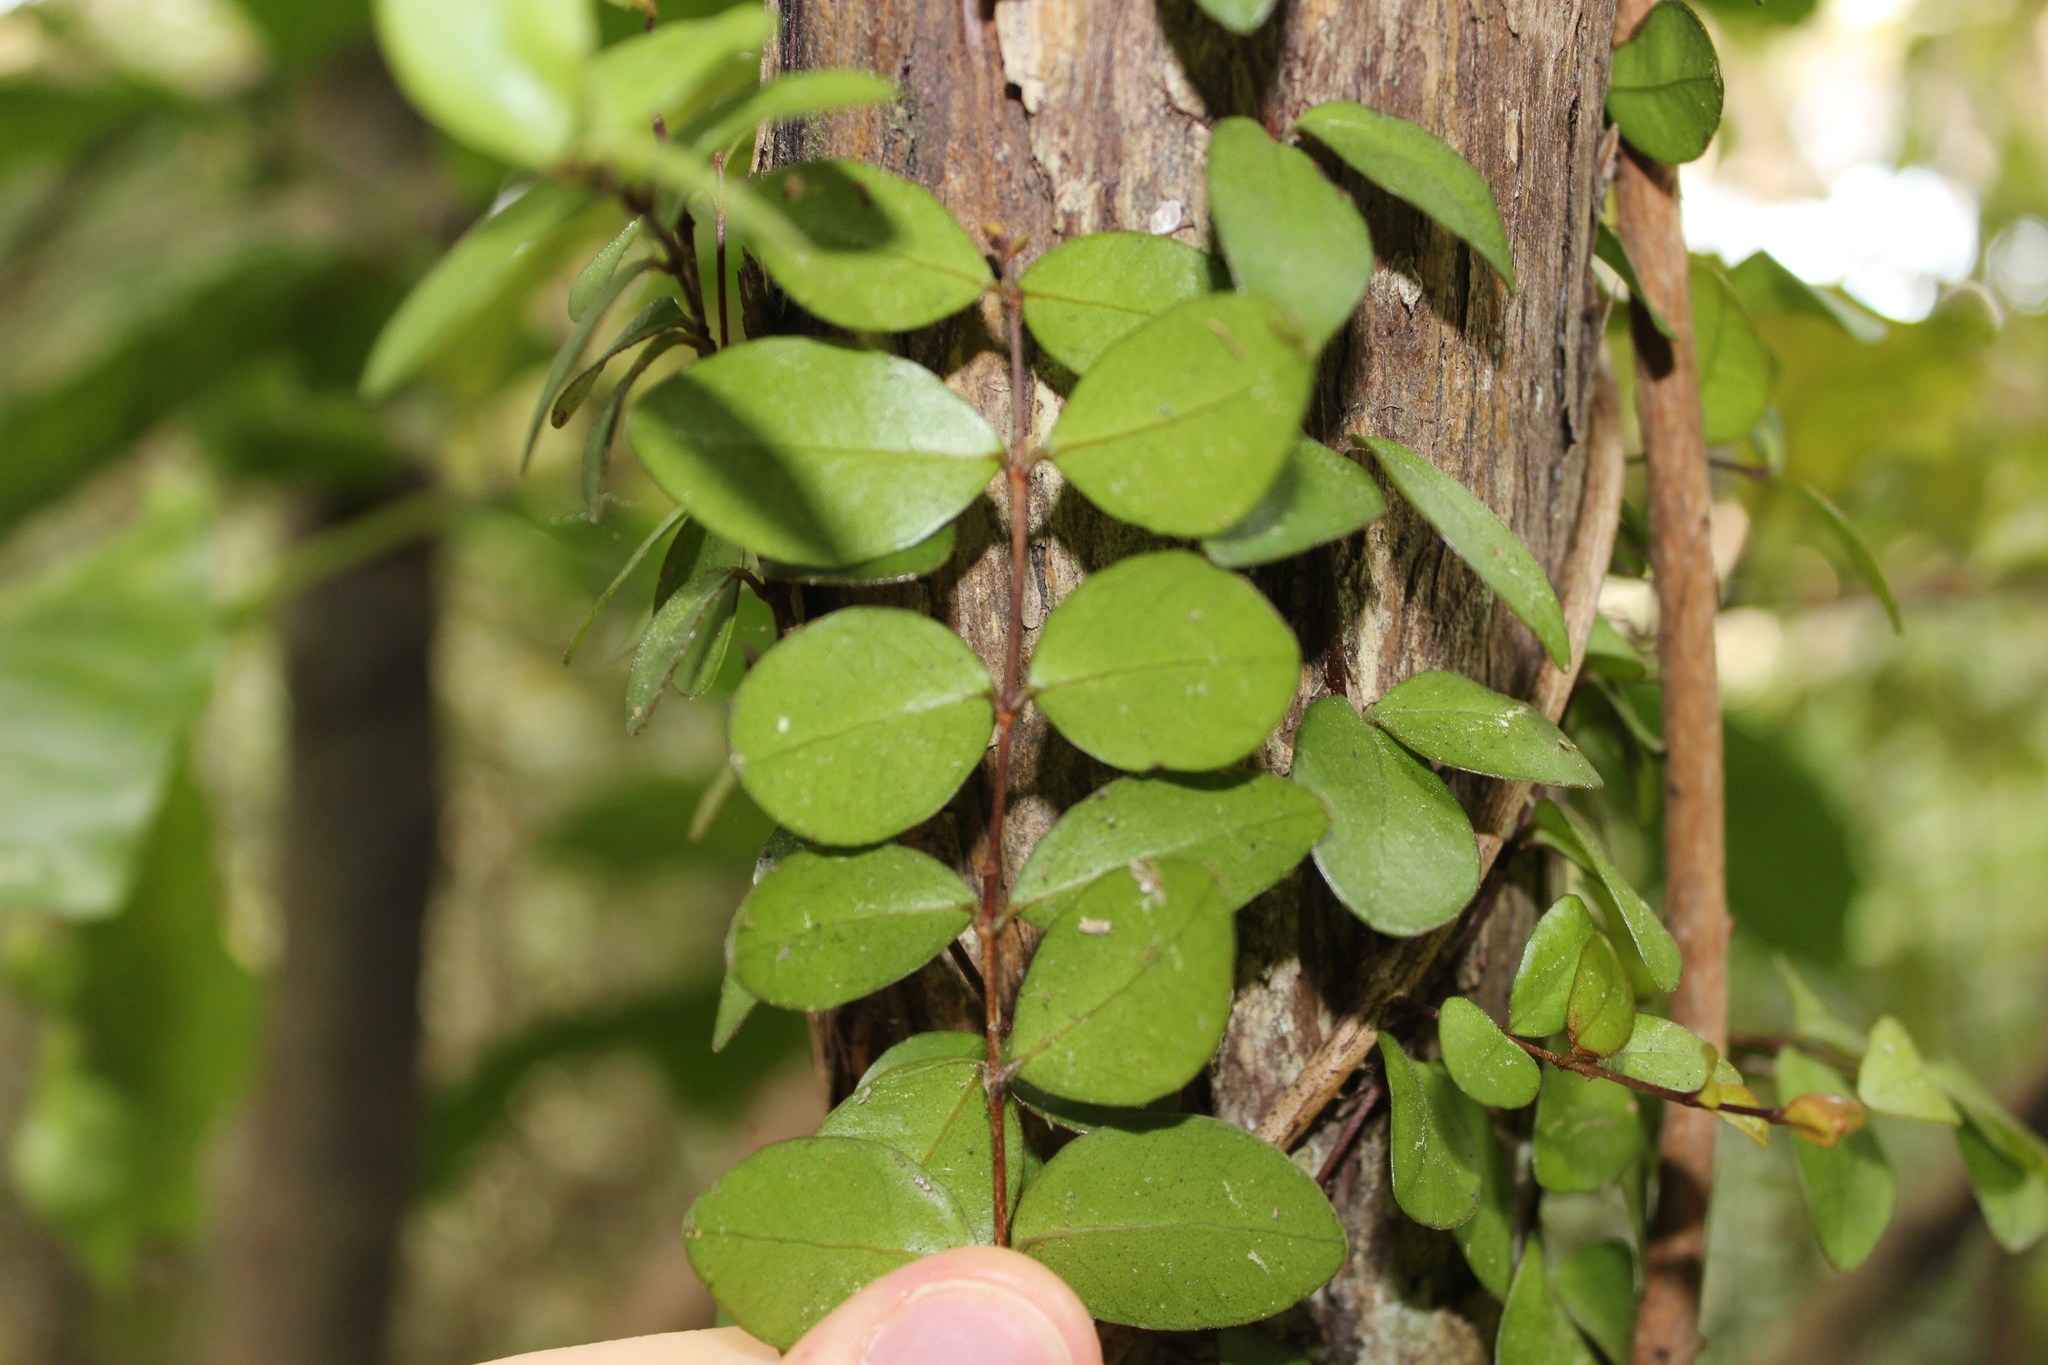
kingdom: Plantae
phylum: Tracheophyta
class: Magnoliopsida
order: Myrtales
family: Myrtaceae
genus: Metrosideros
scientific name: Metrosideros fulgens
